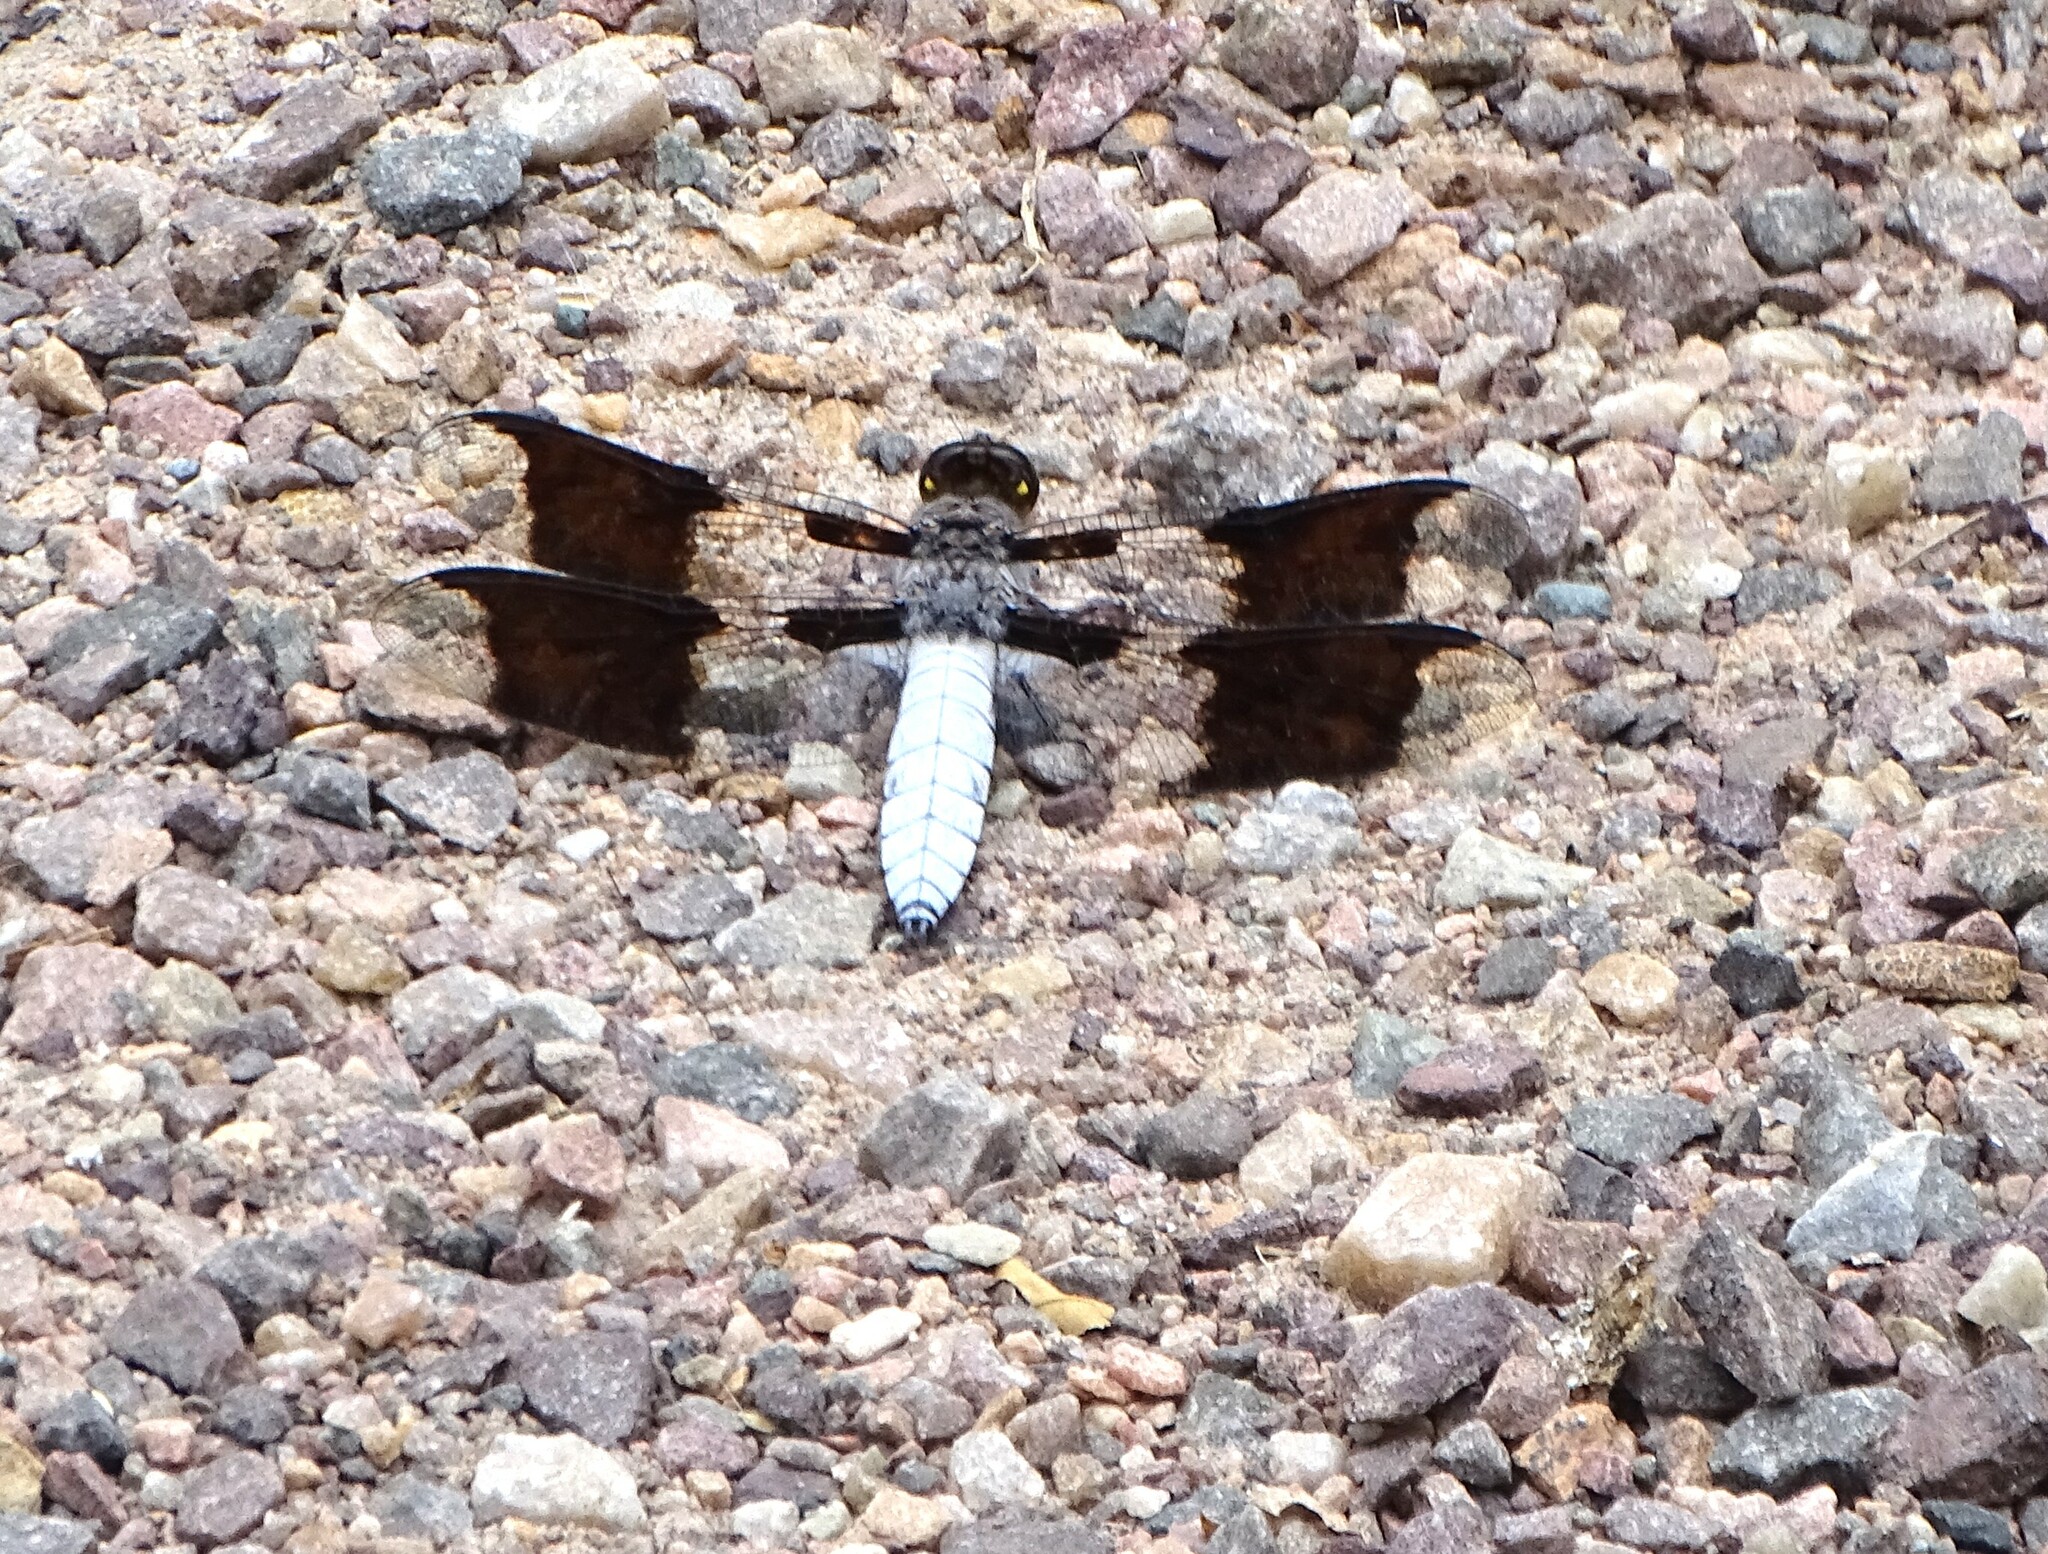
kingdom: Animalia
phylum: Arthropoda
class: Insecta
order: Odonata
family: Libellulidae
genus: Plathemis
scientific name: Plathemis lydia
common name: Common whitetail
